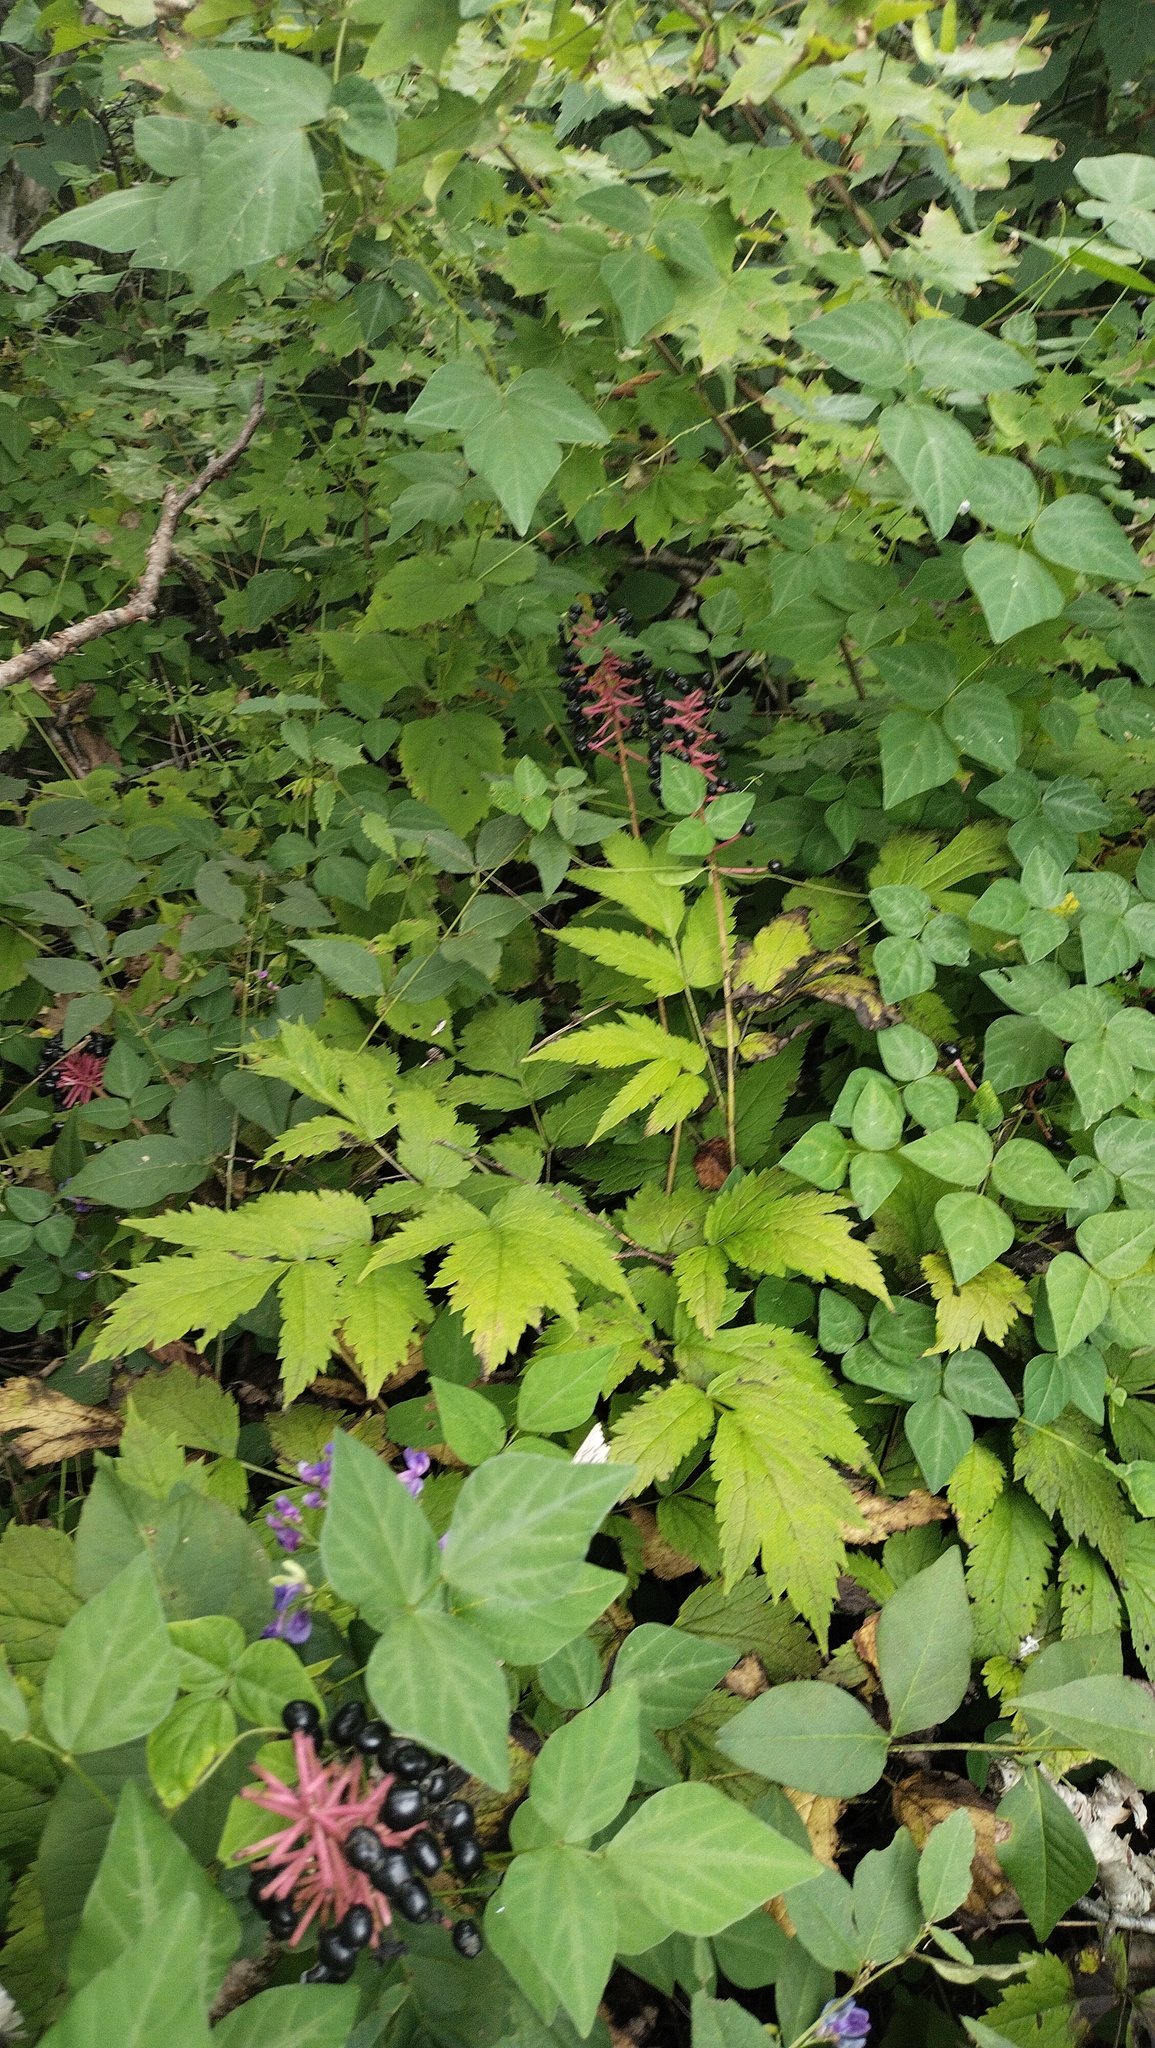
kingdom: Plantae
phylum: Tracheophyta
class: Magnoliopsida
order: Ranunculales
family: Ranunculaceae
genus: Actaea
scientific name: Actaea asiatica
